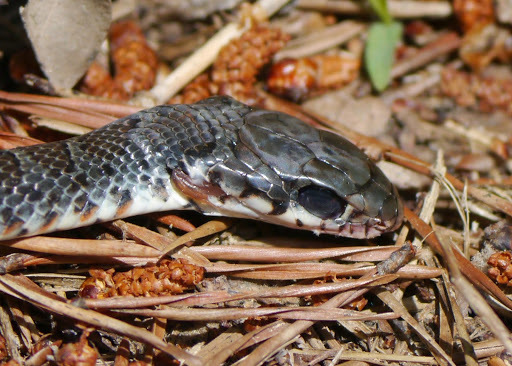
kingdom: Animalia
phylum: Chordata
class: Squamata
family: Colubridae
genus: Coluber
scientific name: Coluber constrictor
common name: Eastern racer
